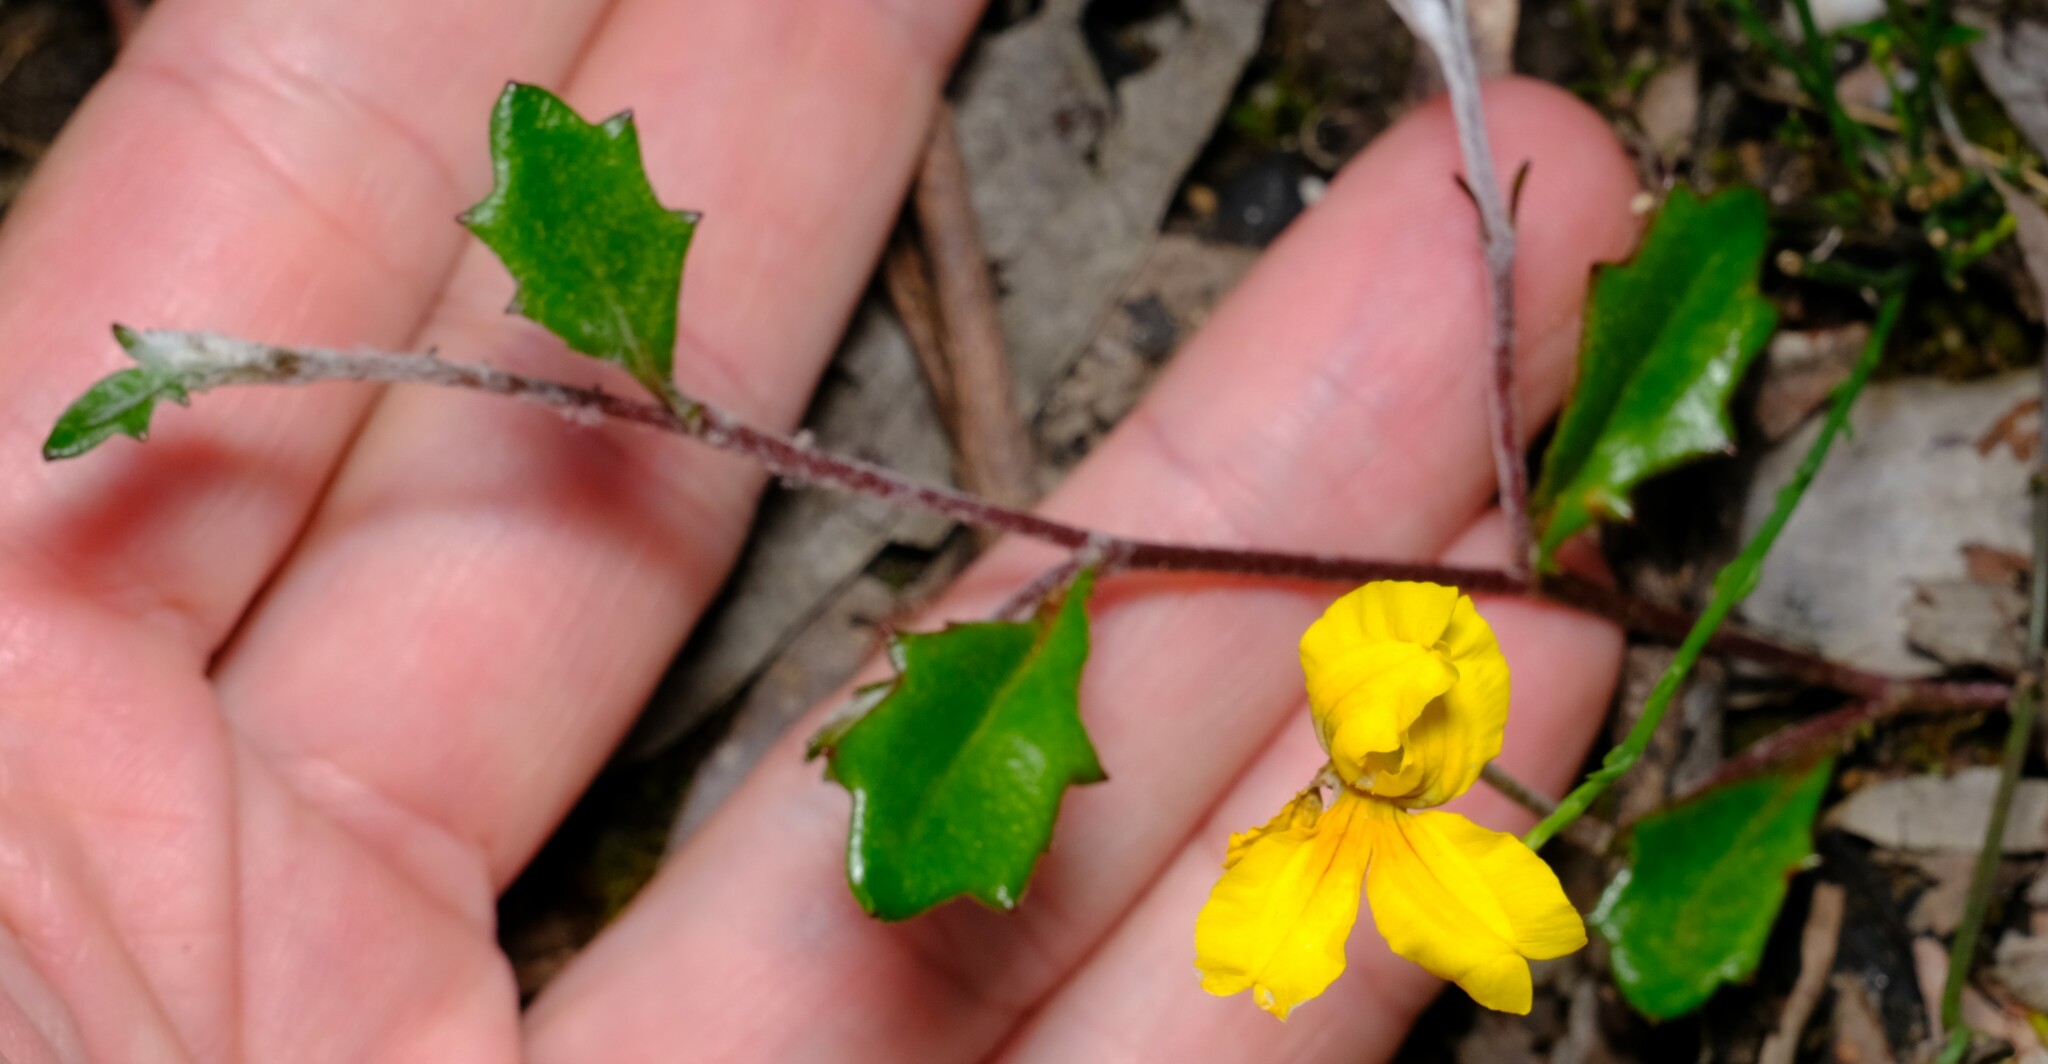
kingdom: Plantae
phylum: Tracheophyta
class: Magnoliopsida
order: Asterales
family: Goodeniaceae
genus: Goodenia
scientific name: Goodenia lanata
